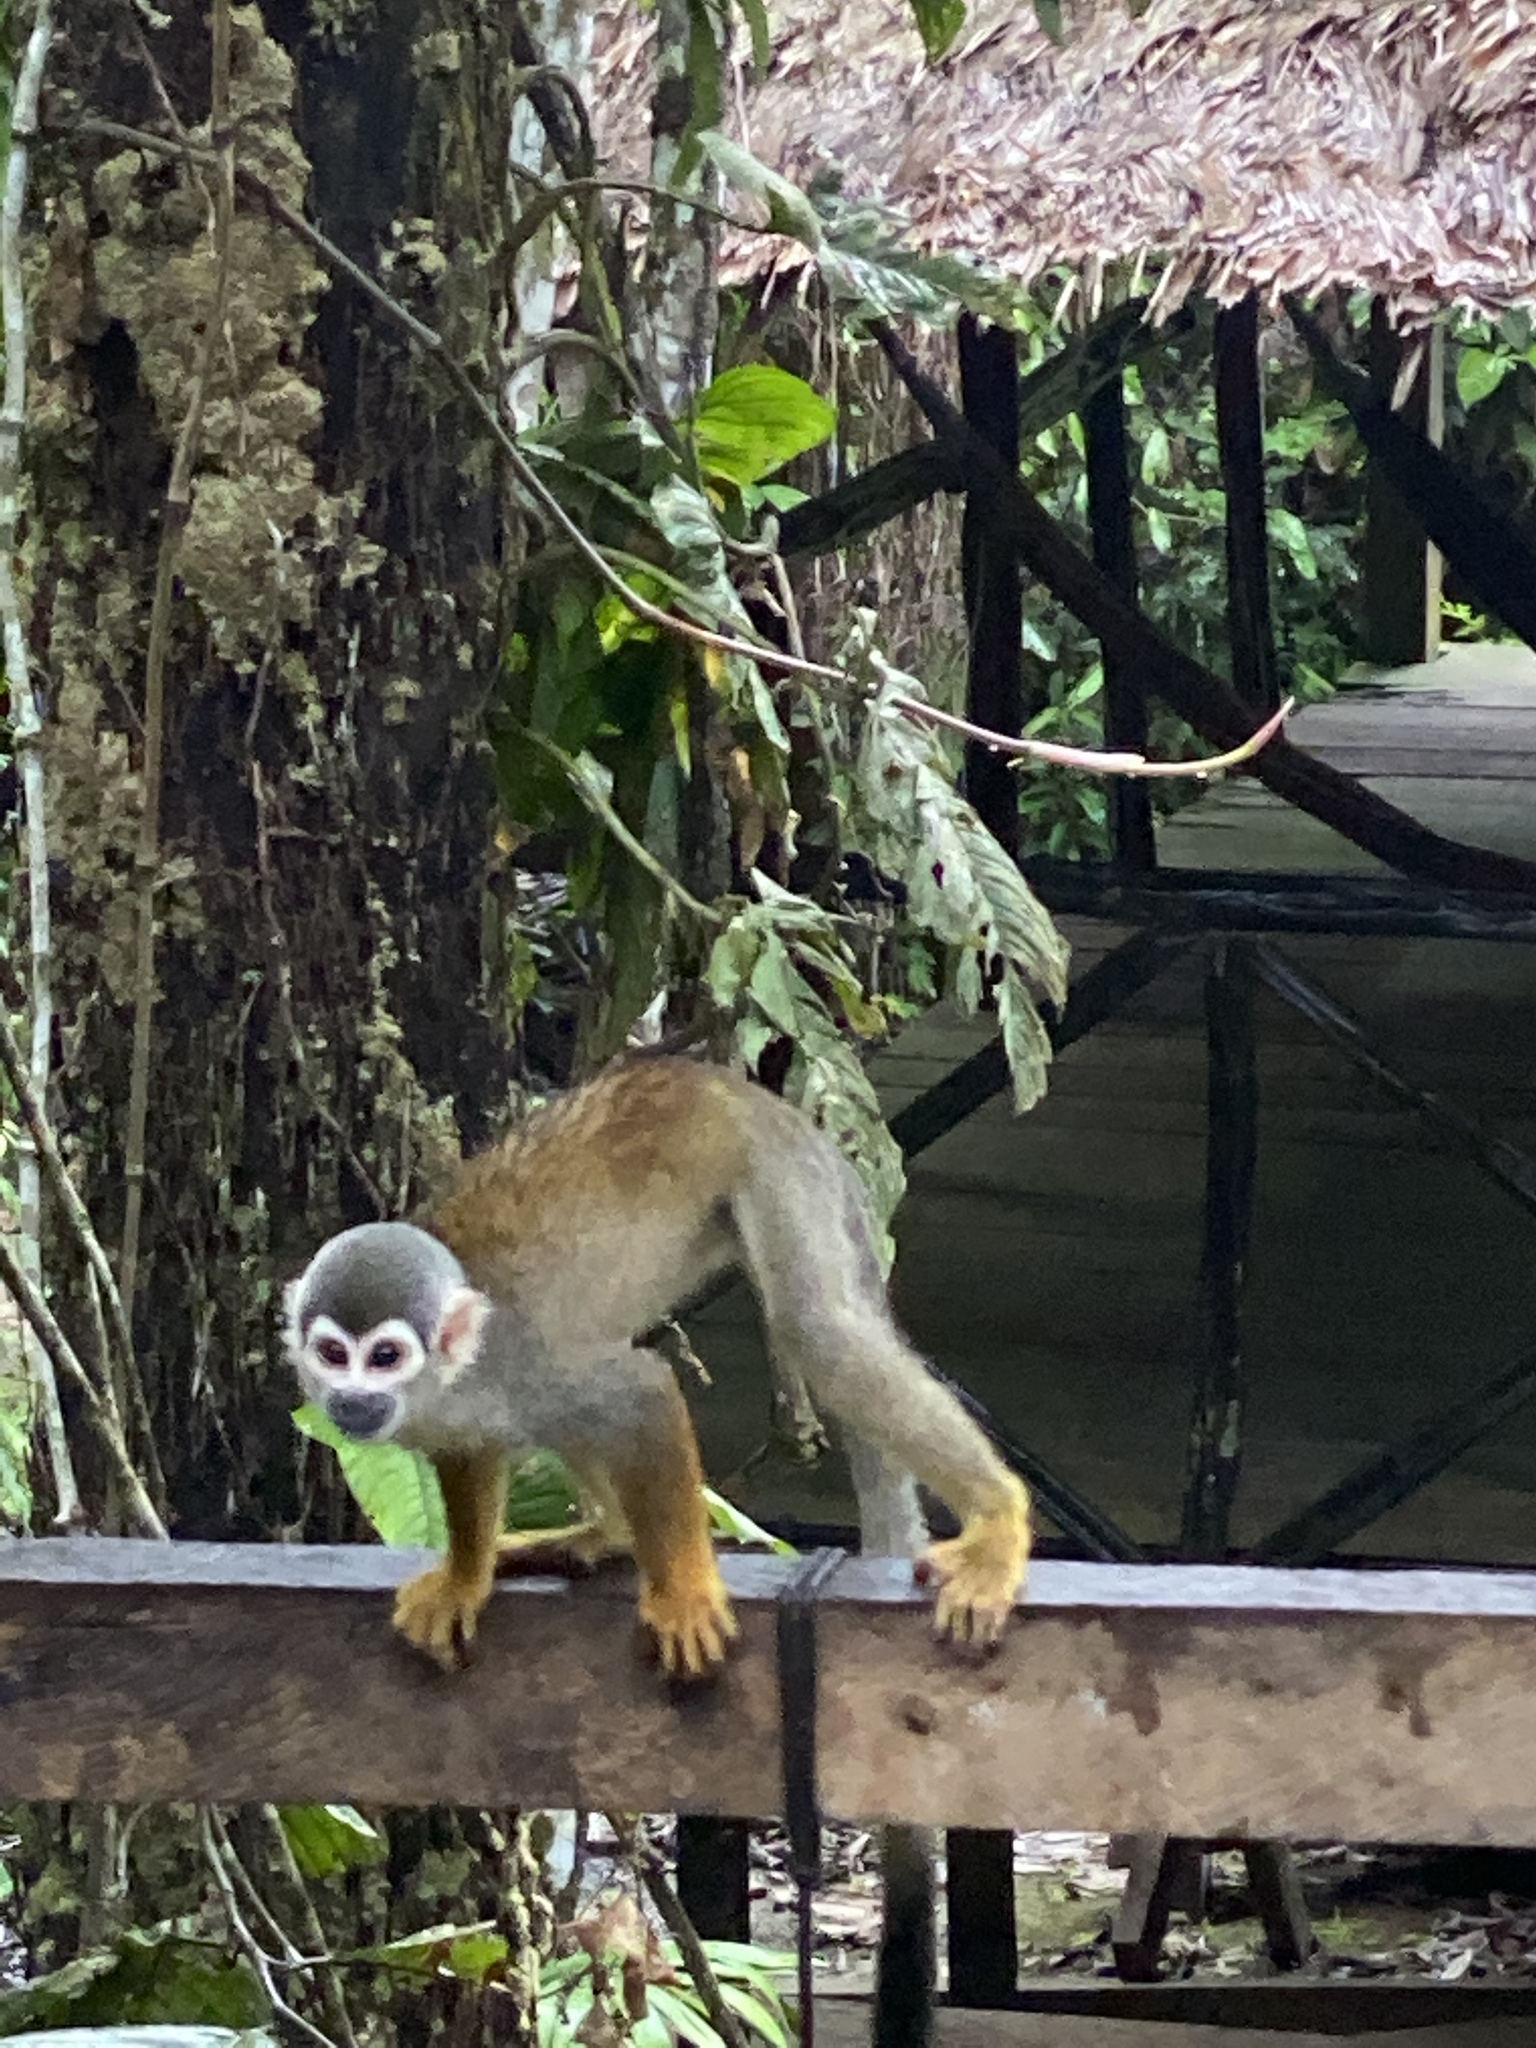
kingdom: Animalia
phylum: Chordata
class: Mammalia
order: Primates
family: Cebidae
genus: Saimiri
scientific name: Saimiri cassiquiarensis
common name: Humboldt’s squirrel monkey
